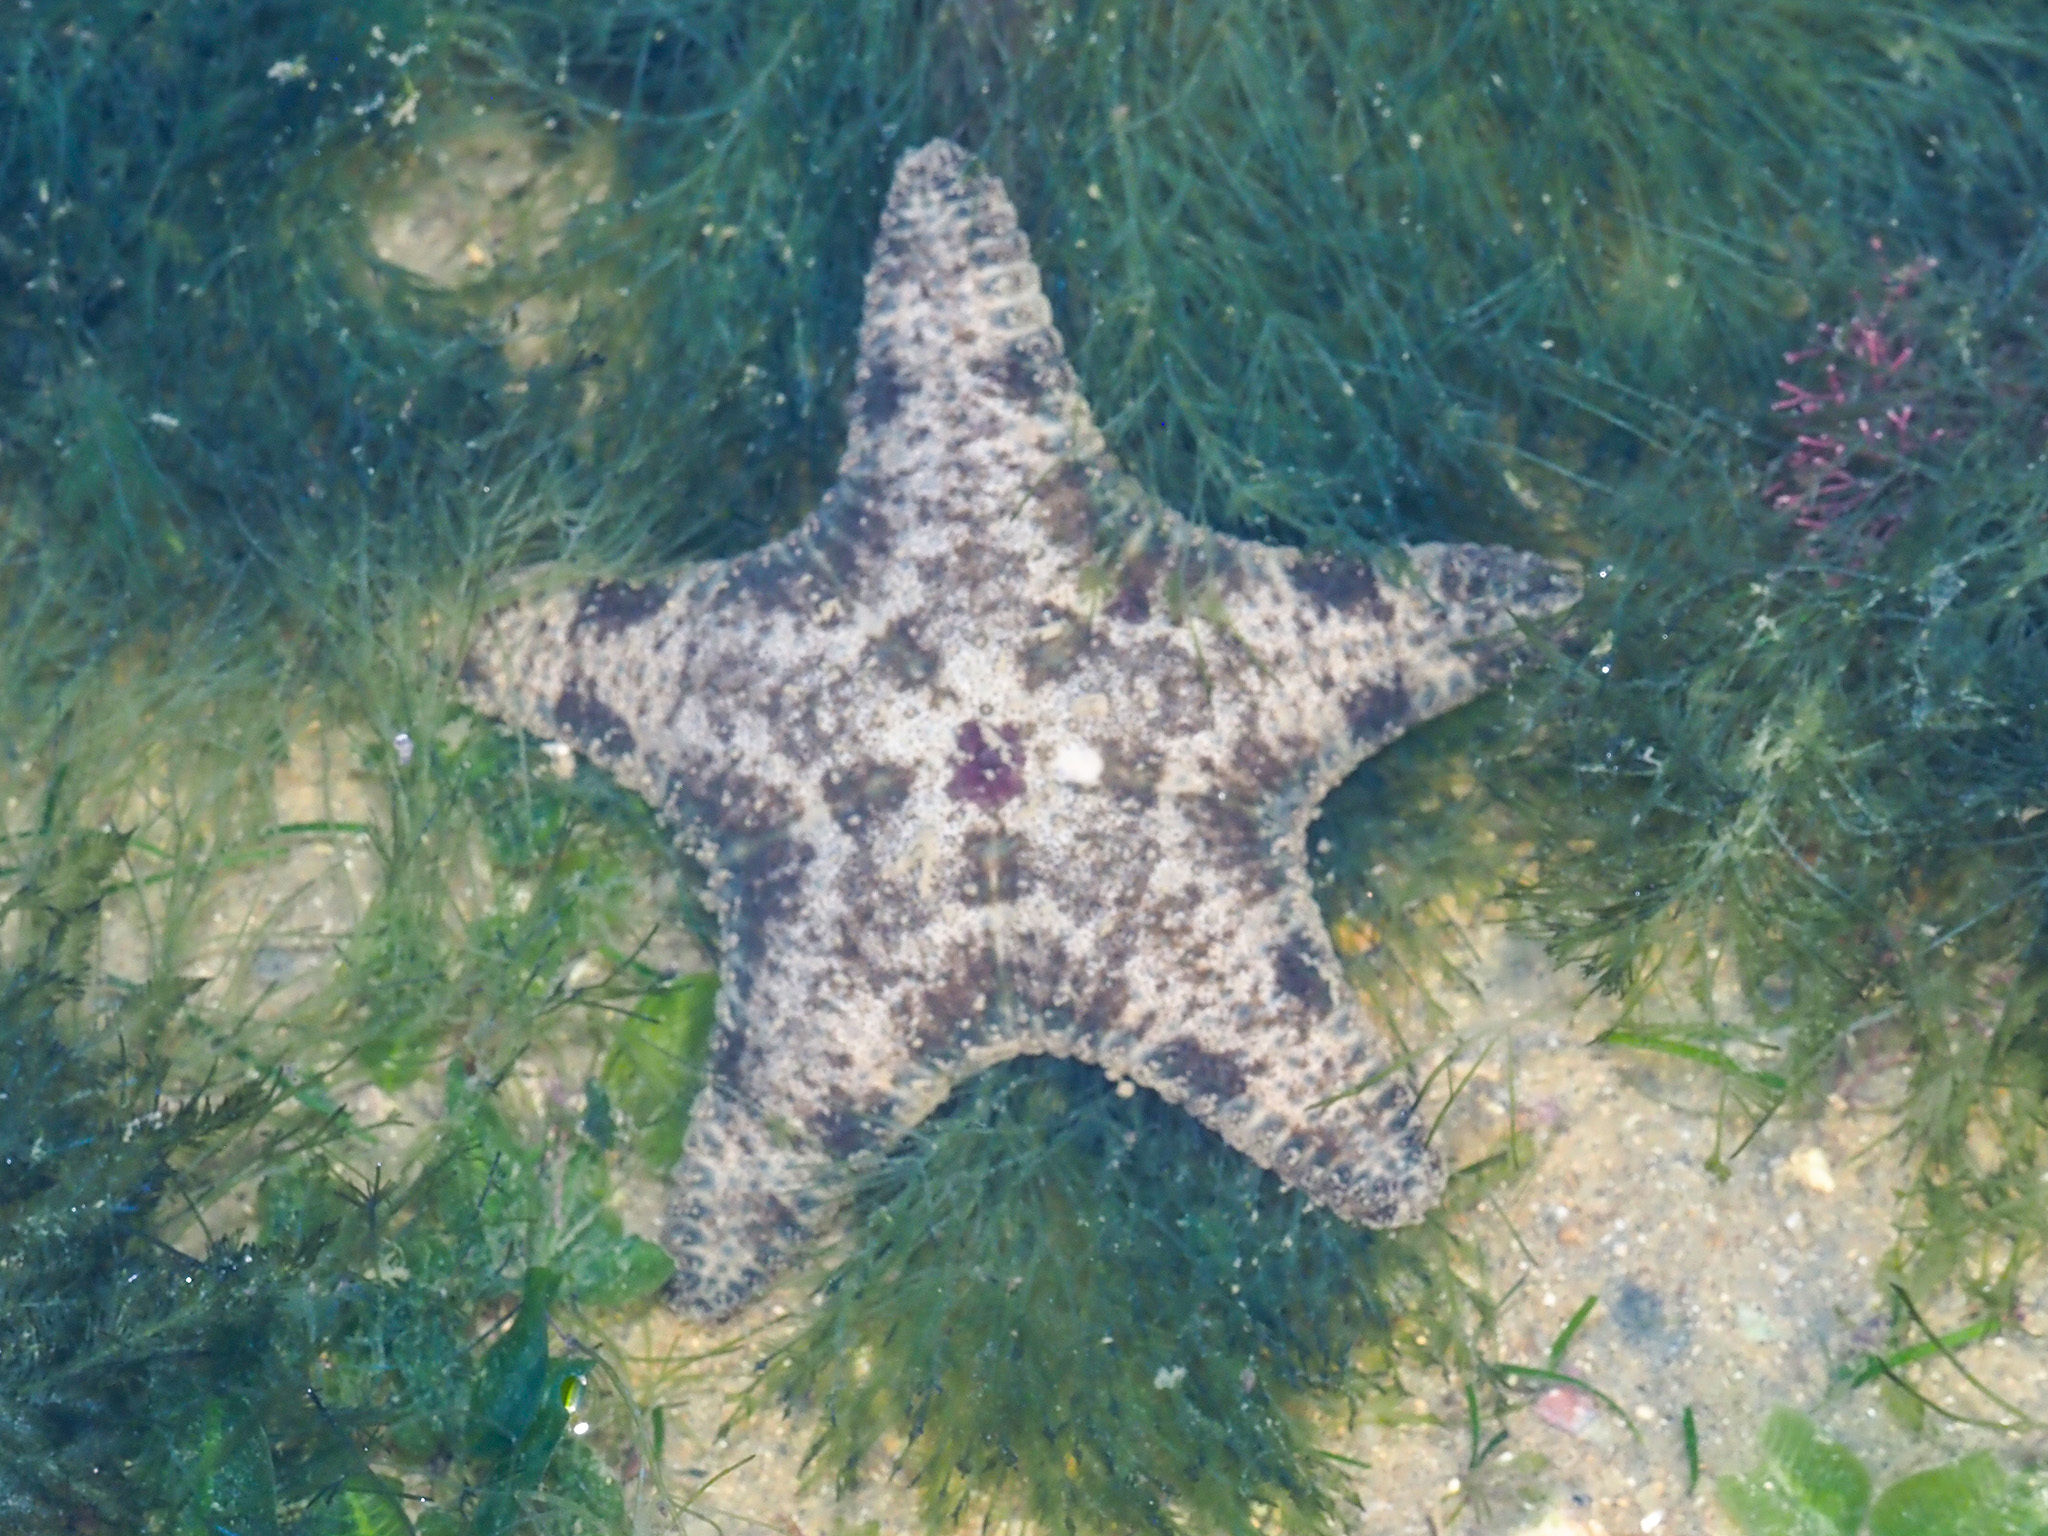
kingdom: Animalia
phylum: Echinodermata
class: Asteroidea
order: Valvatida
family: Oreasteridae
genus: Anthenea
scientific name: Anthenea aspera
